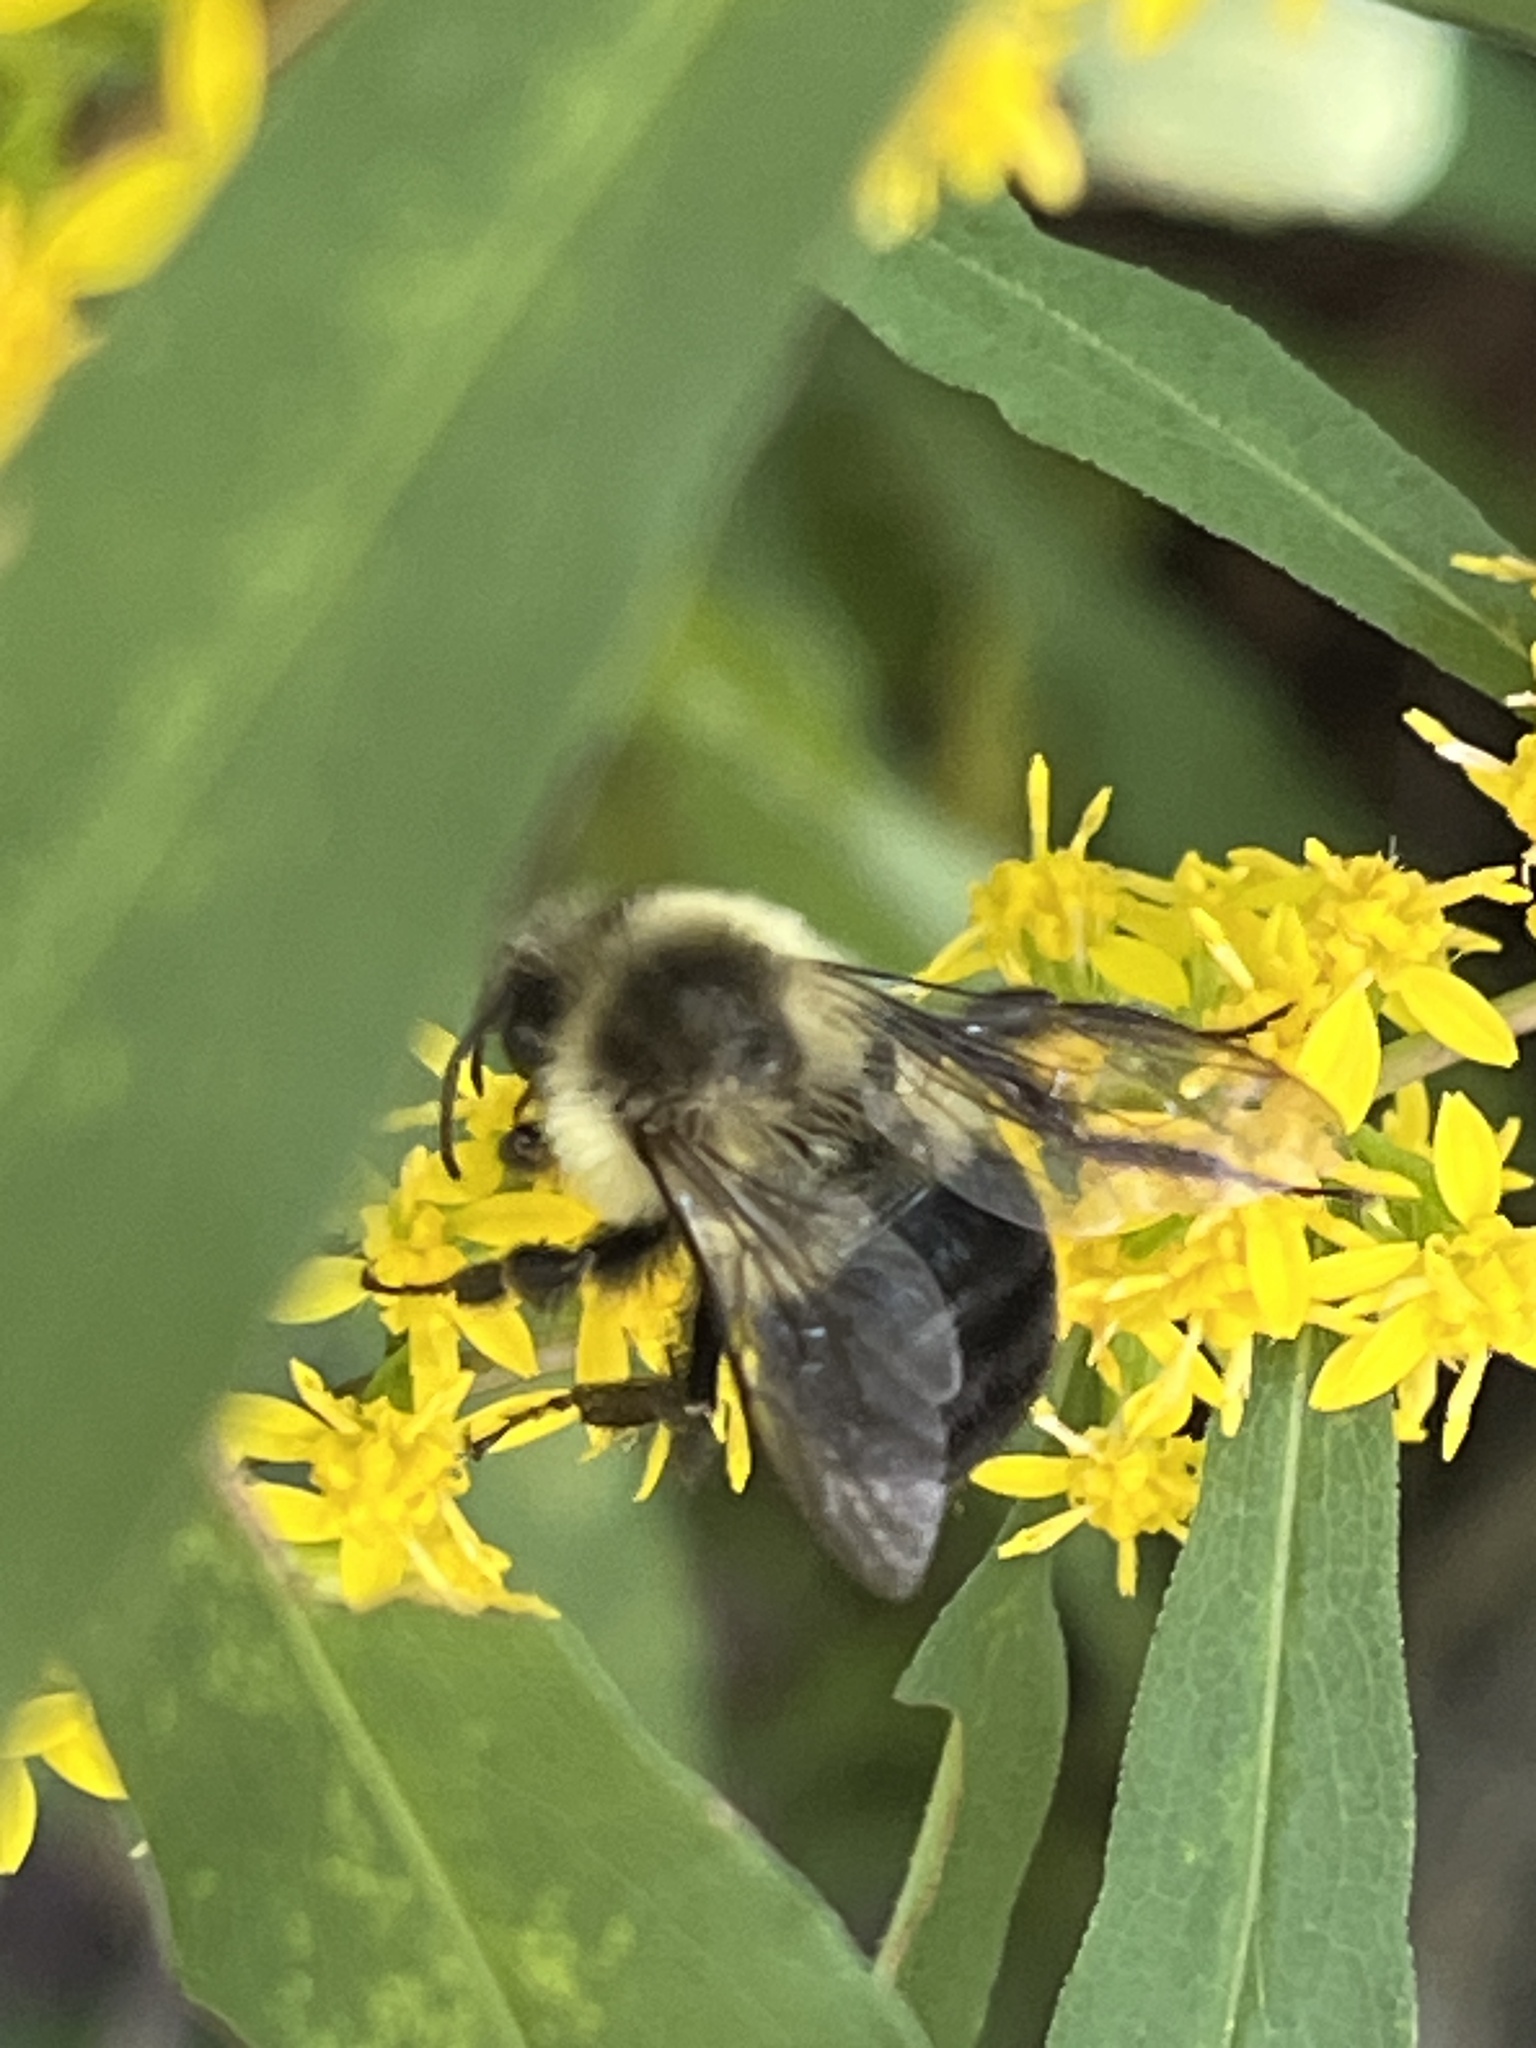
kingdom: Animalia
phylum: Arthropoda
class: Insecta
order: Hymenoptera
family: Apidae
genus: Bombus
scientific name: Bombus impatiens
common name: Common eastern bumble bee
